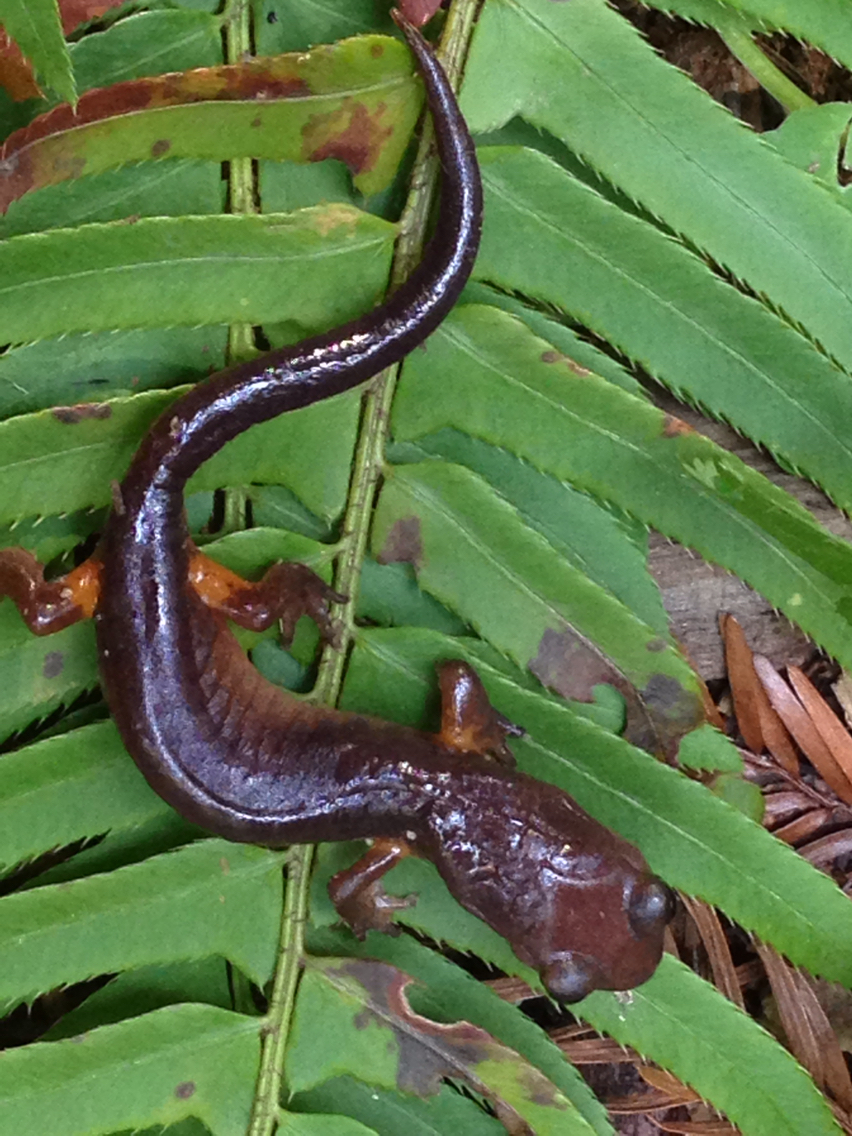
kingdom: Animalia
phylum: Chordata
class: Amphibia
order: Caudata
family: Plethodontidae
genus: Ensatina
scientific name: Ensatina eschscholtzii
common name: Ensatina
